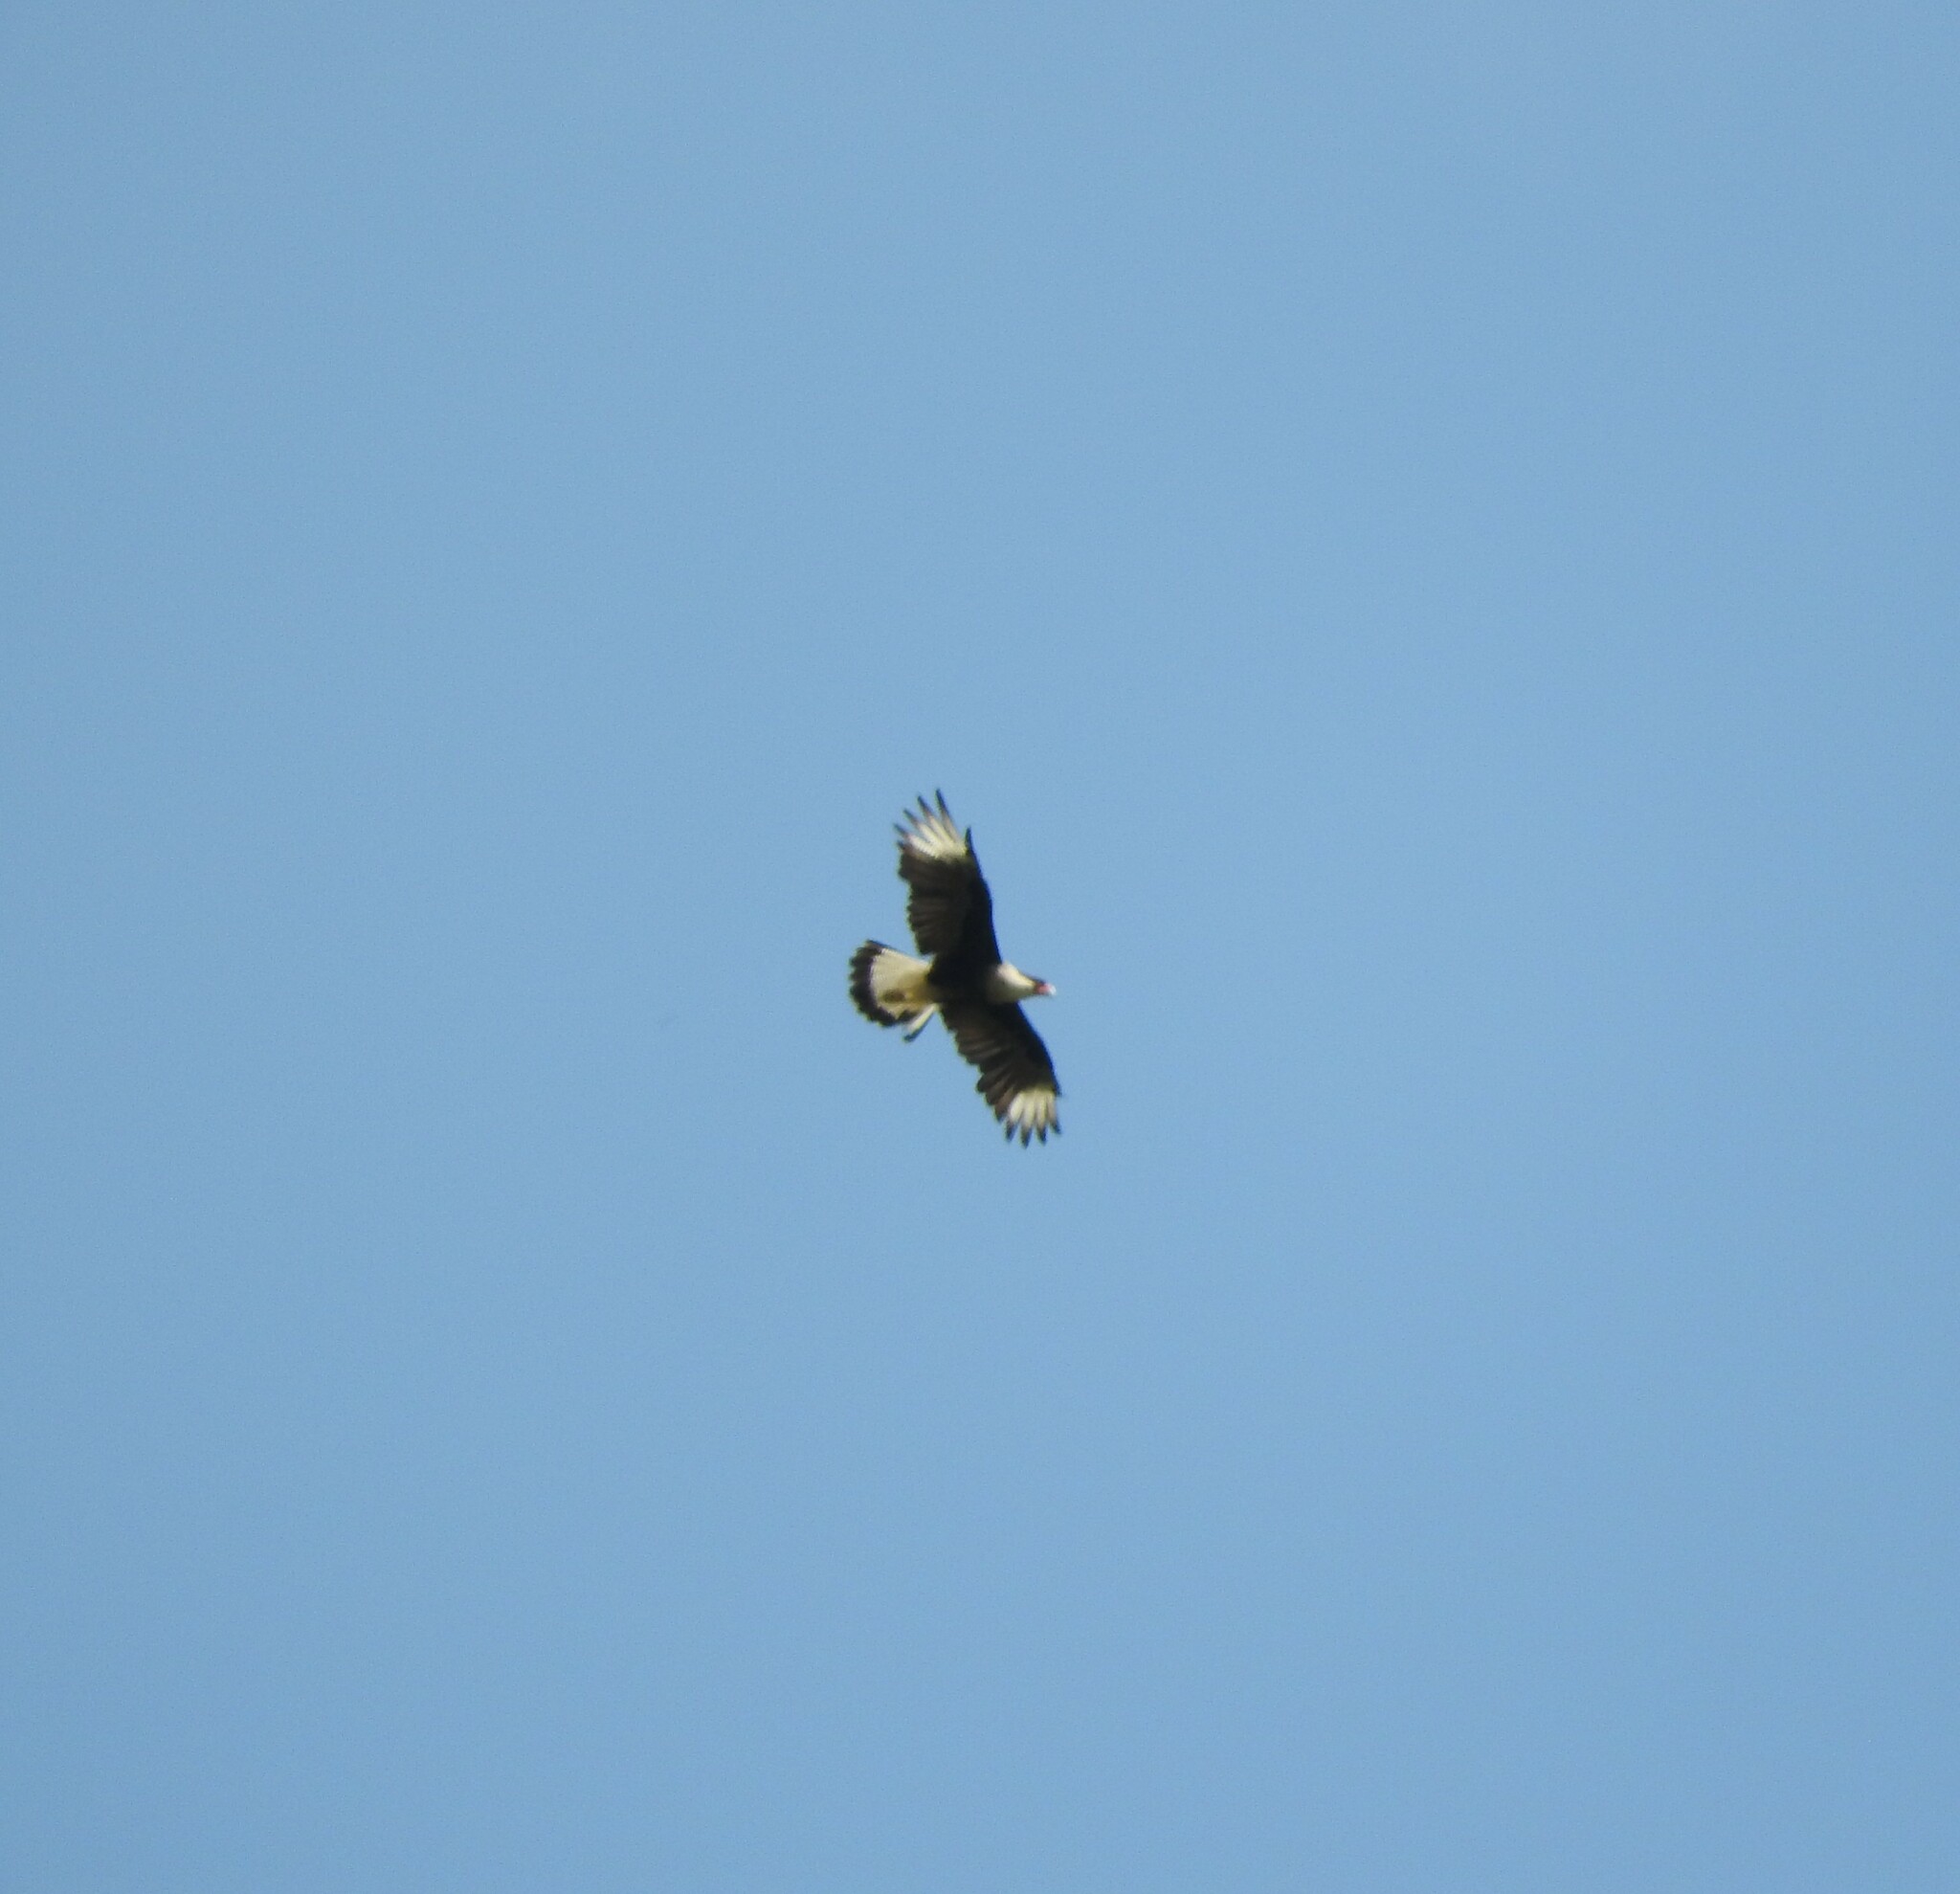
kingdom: Animalia
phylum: Chordata
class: Aves
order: Falconiformes
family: Falconidae
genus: Caracara
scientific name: Caracara plancus
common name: Southern caracara
